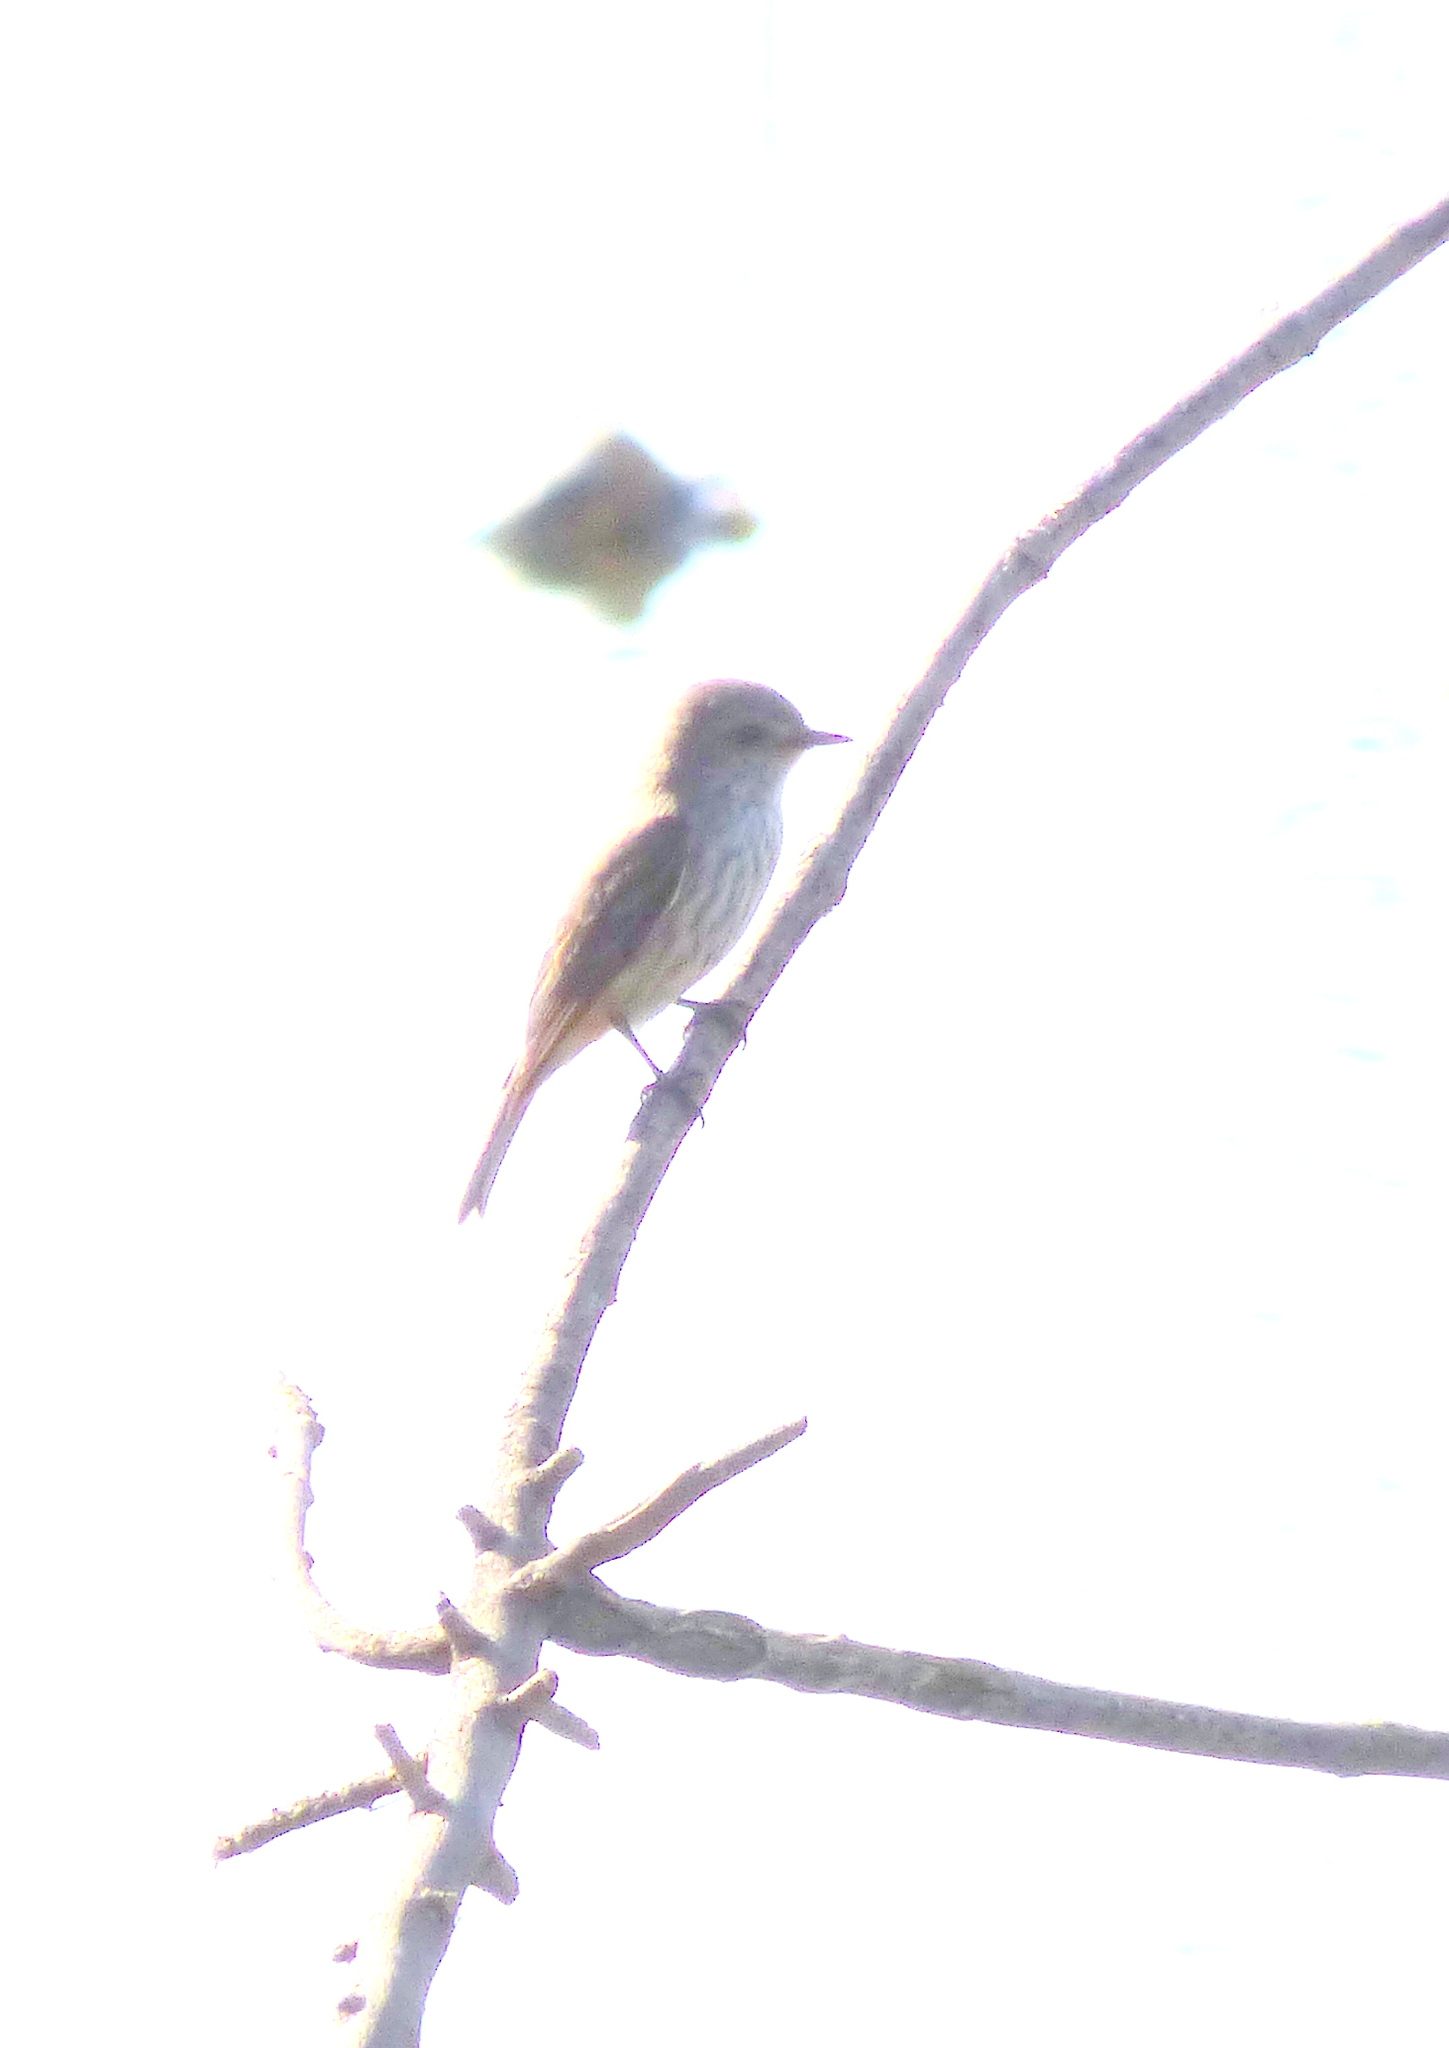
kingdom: Animalia
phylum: Chordata
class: Aves
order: Passeriformes
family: Tyrannidae
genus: Pyrocephalus
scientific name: Pyrocephalus rubinus
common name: Vermilion flycatcher
